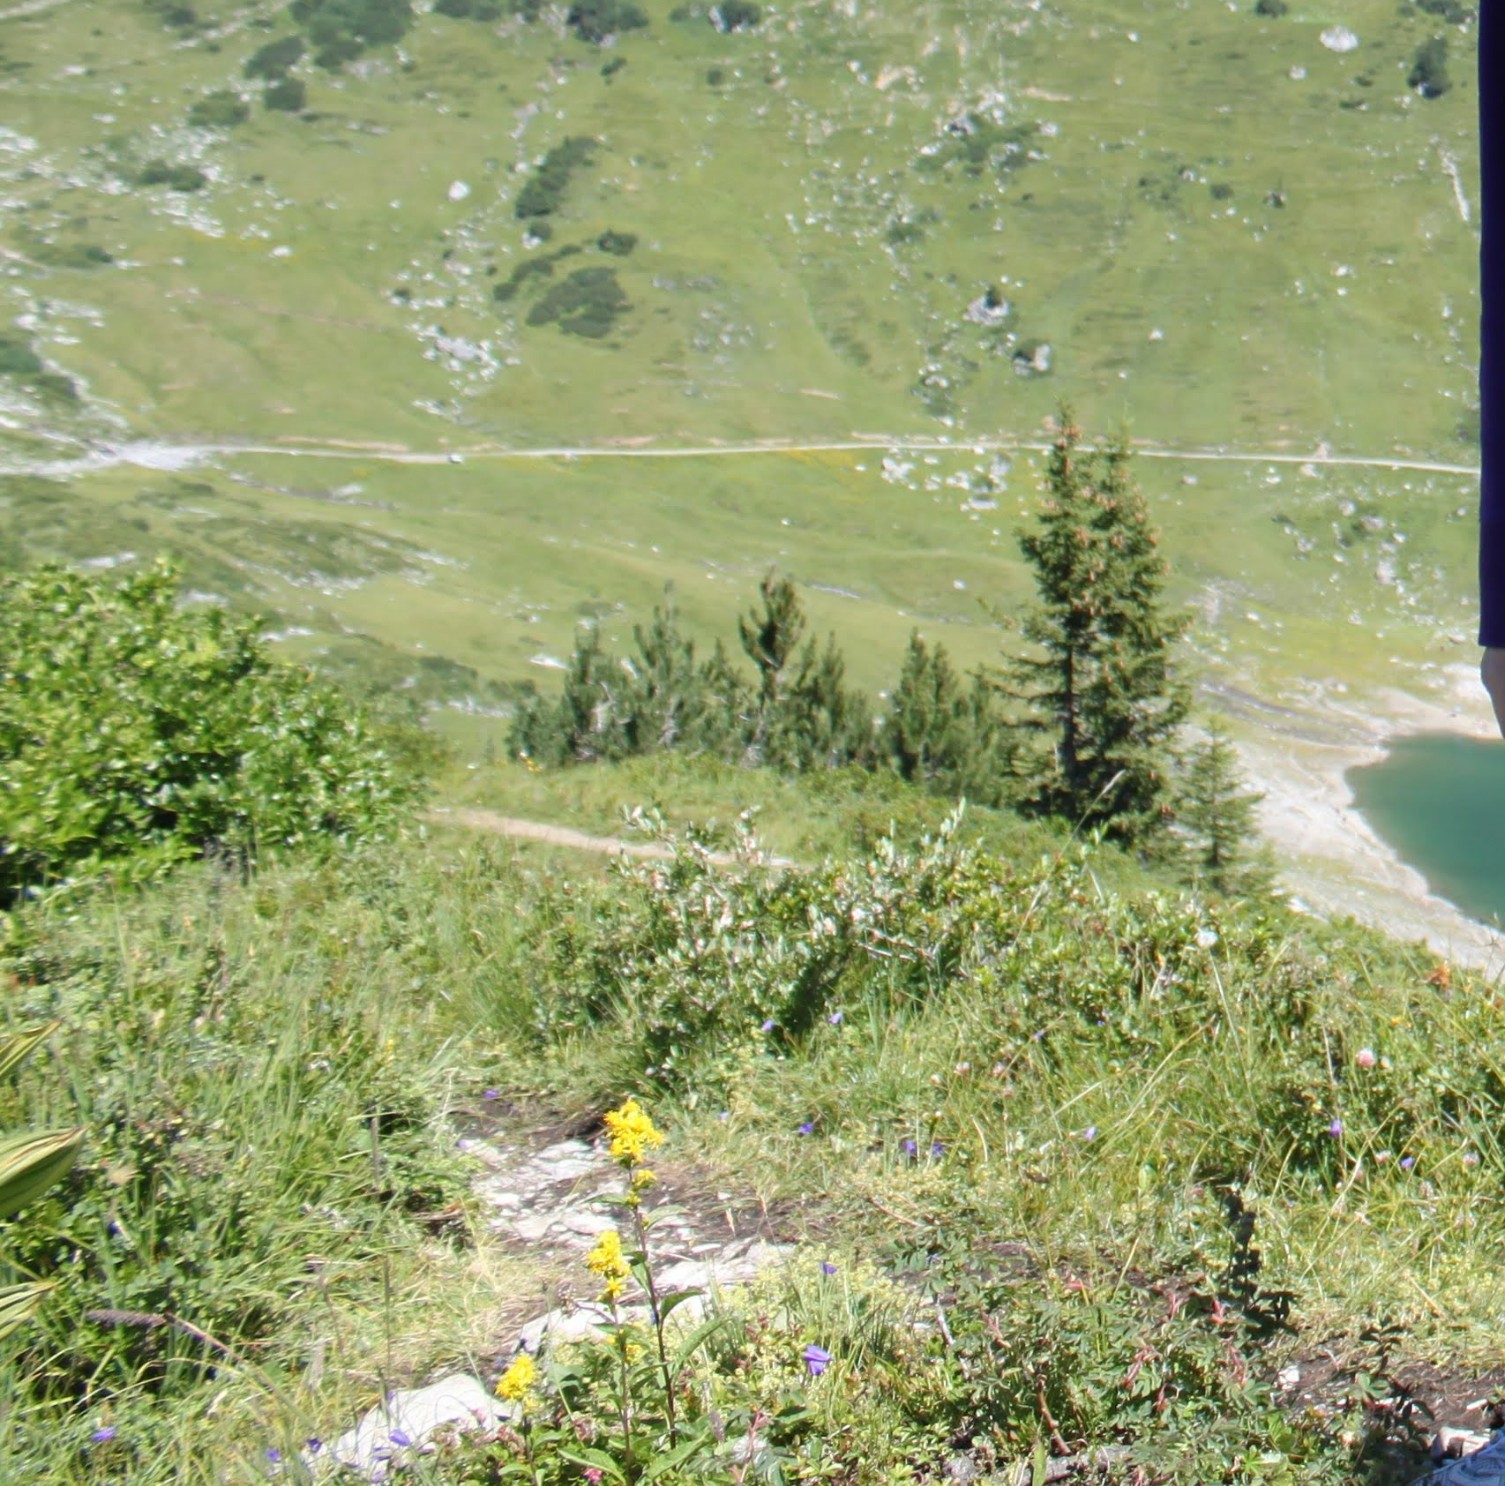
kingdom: Plantae
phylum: Tracheophyta
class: Magnoliopsida
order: Asterales
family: Asteraceae
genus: Solidago
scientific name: Solidago virgaurea
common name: Goldenrod
